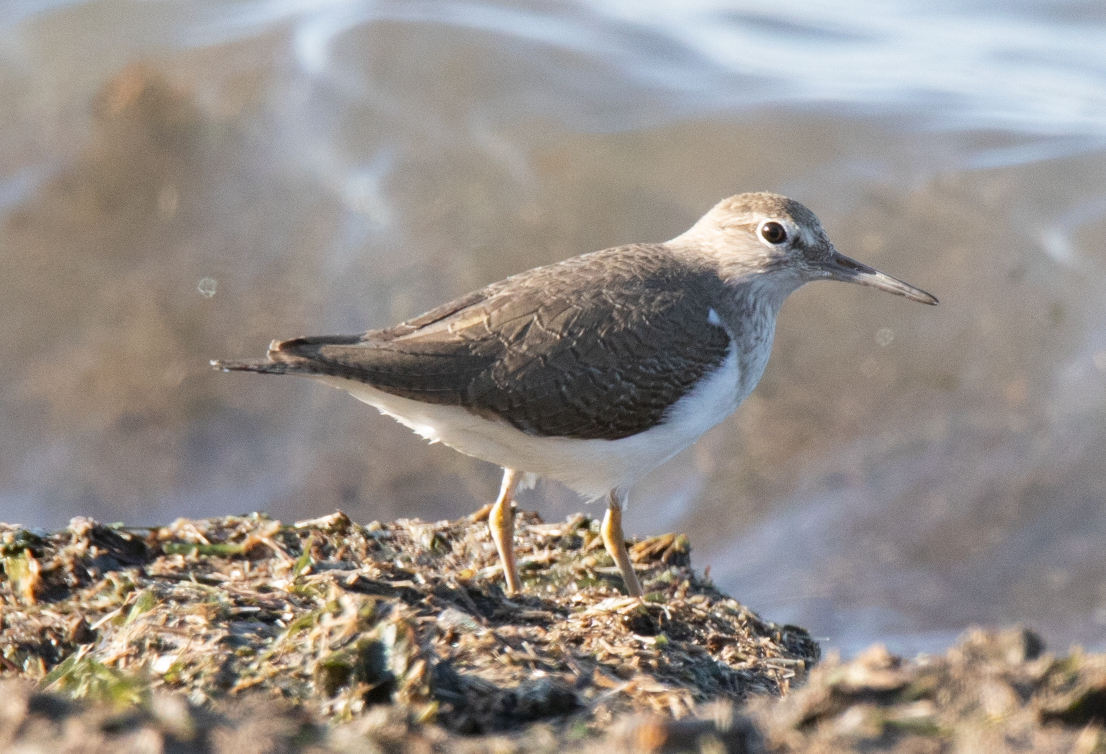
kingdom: Animalia
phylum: Chordata
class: Aves
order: Charadriiformes
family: Scolopacidae
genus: Actitis
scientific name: Actitis hypoleucos
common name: Common sandpiper
